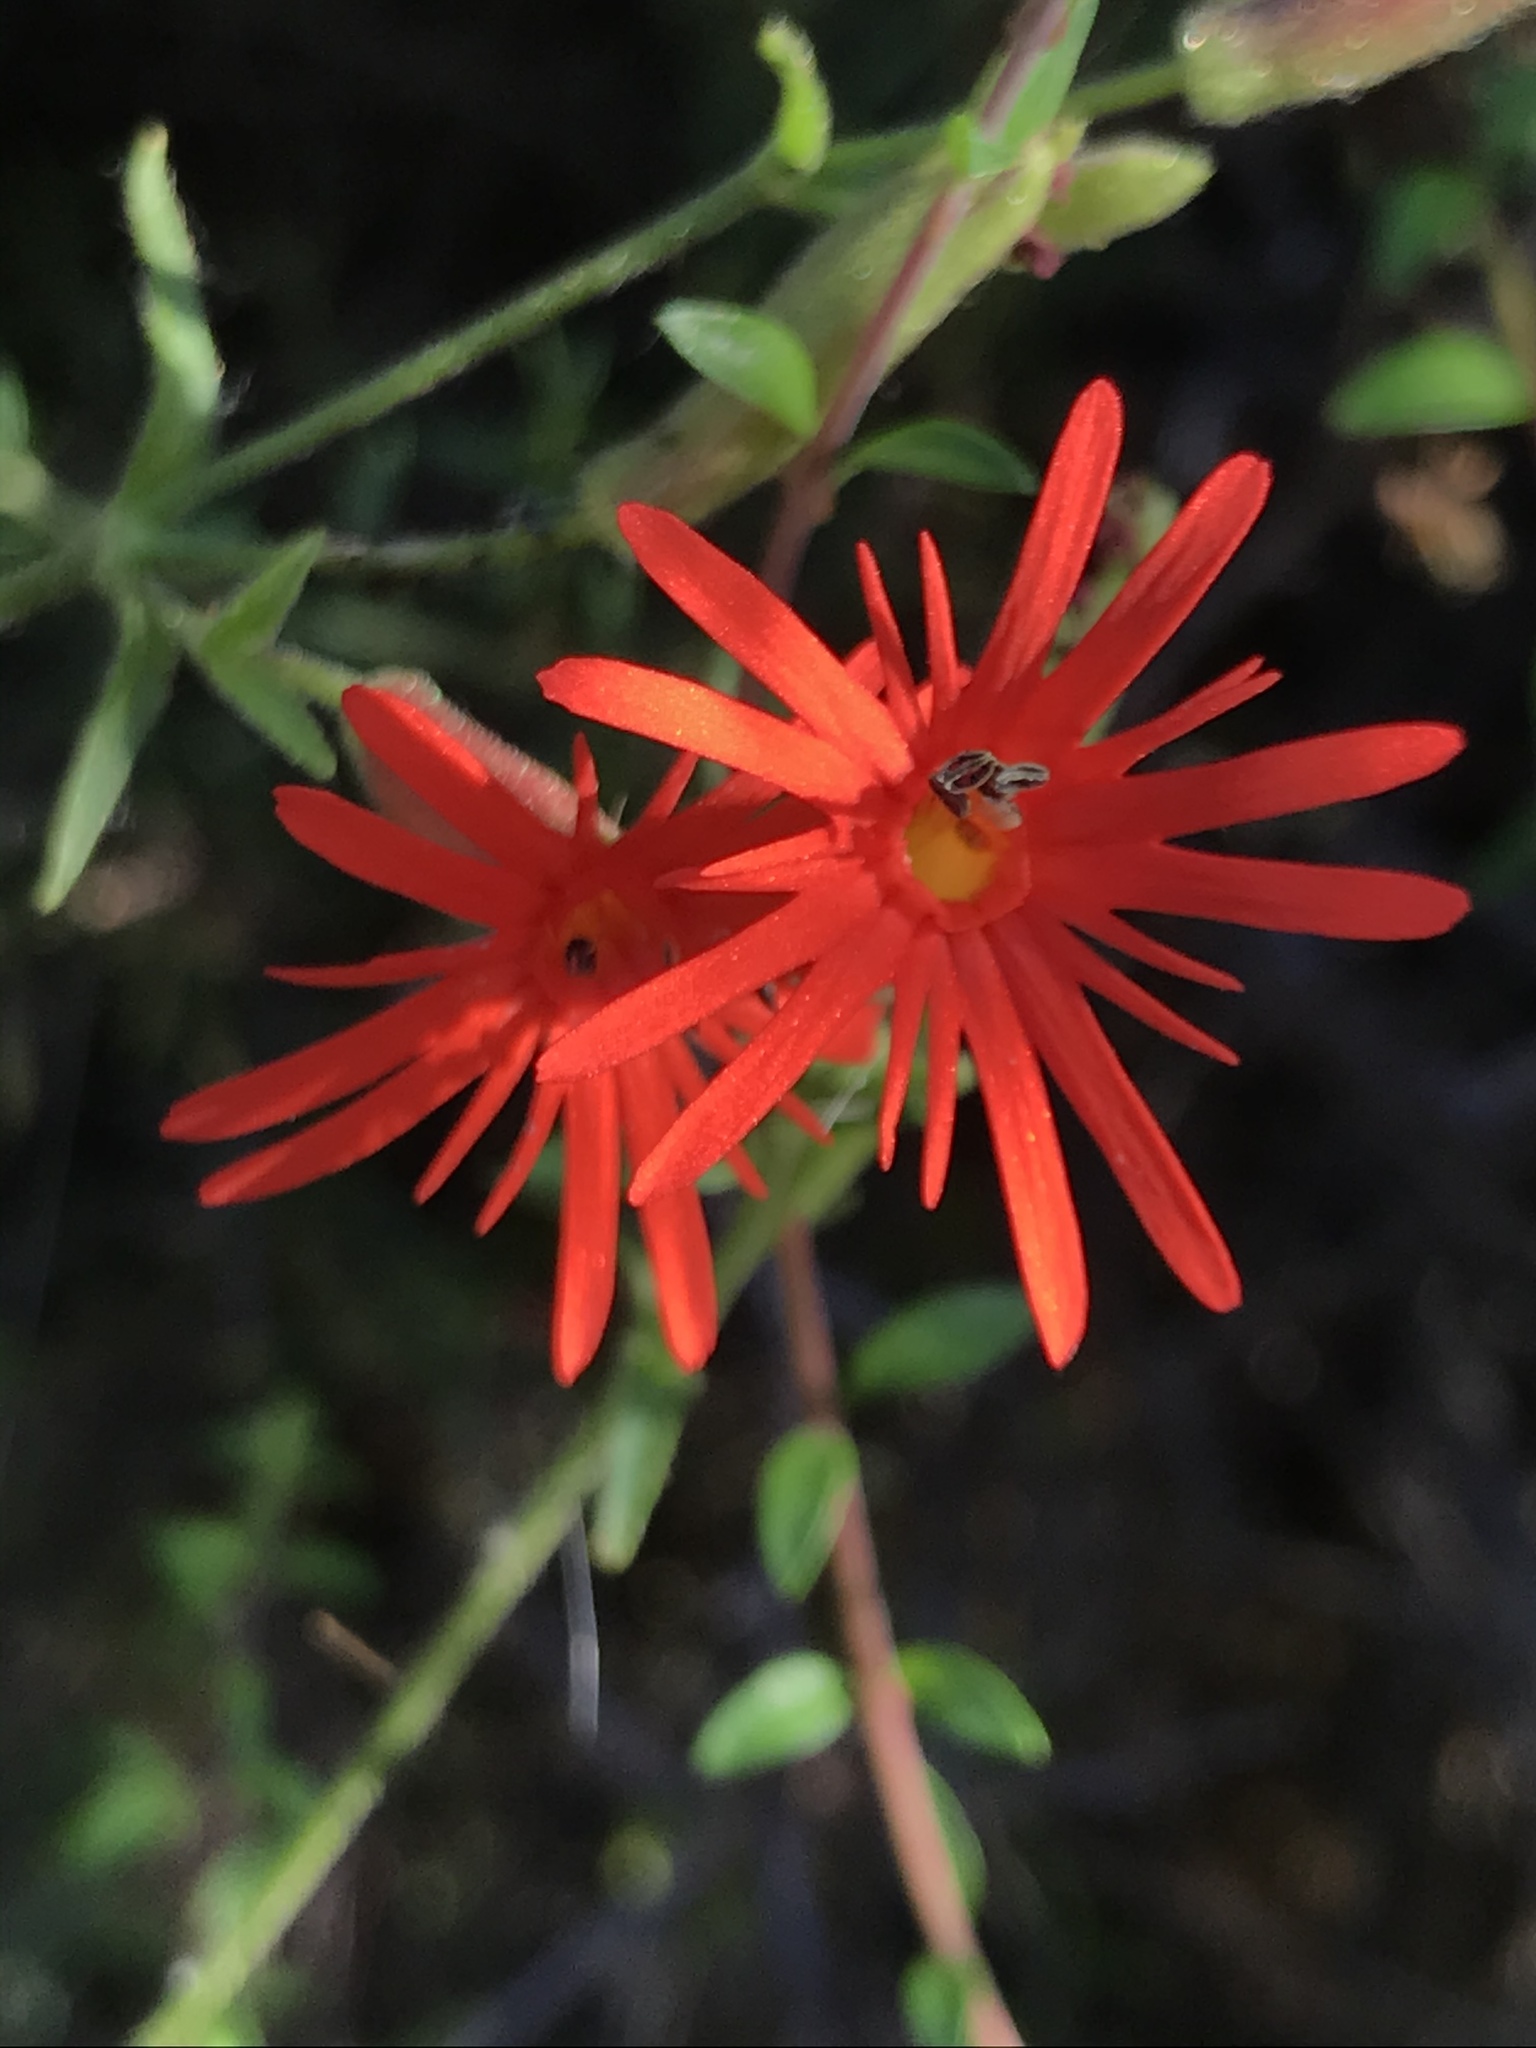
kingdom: Plantae
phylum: Tracheophyta
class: Magnoliopsida
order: Caryophyllales
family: Caryophyllaceae
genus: Silene
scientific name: Silene laciniata
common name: Indian-pink
